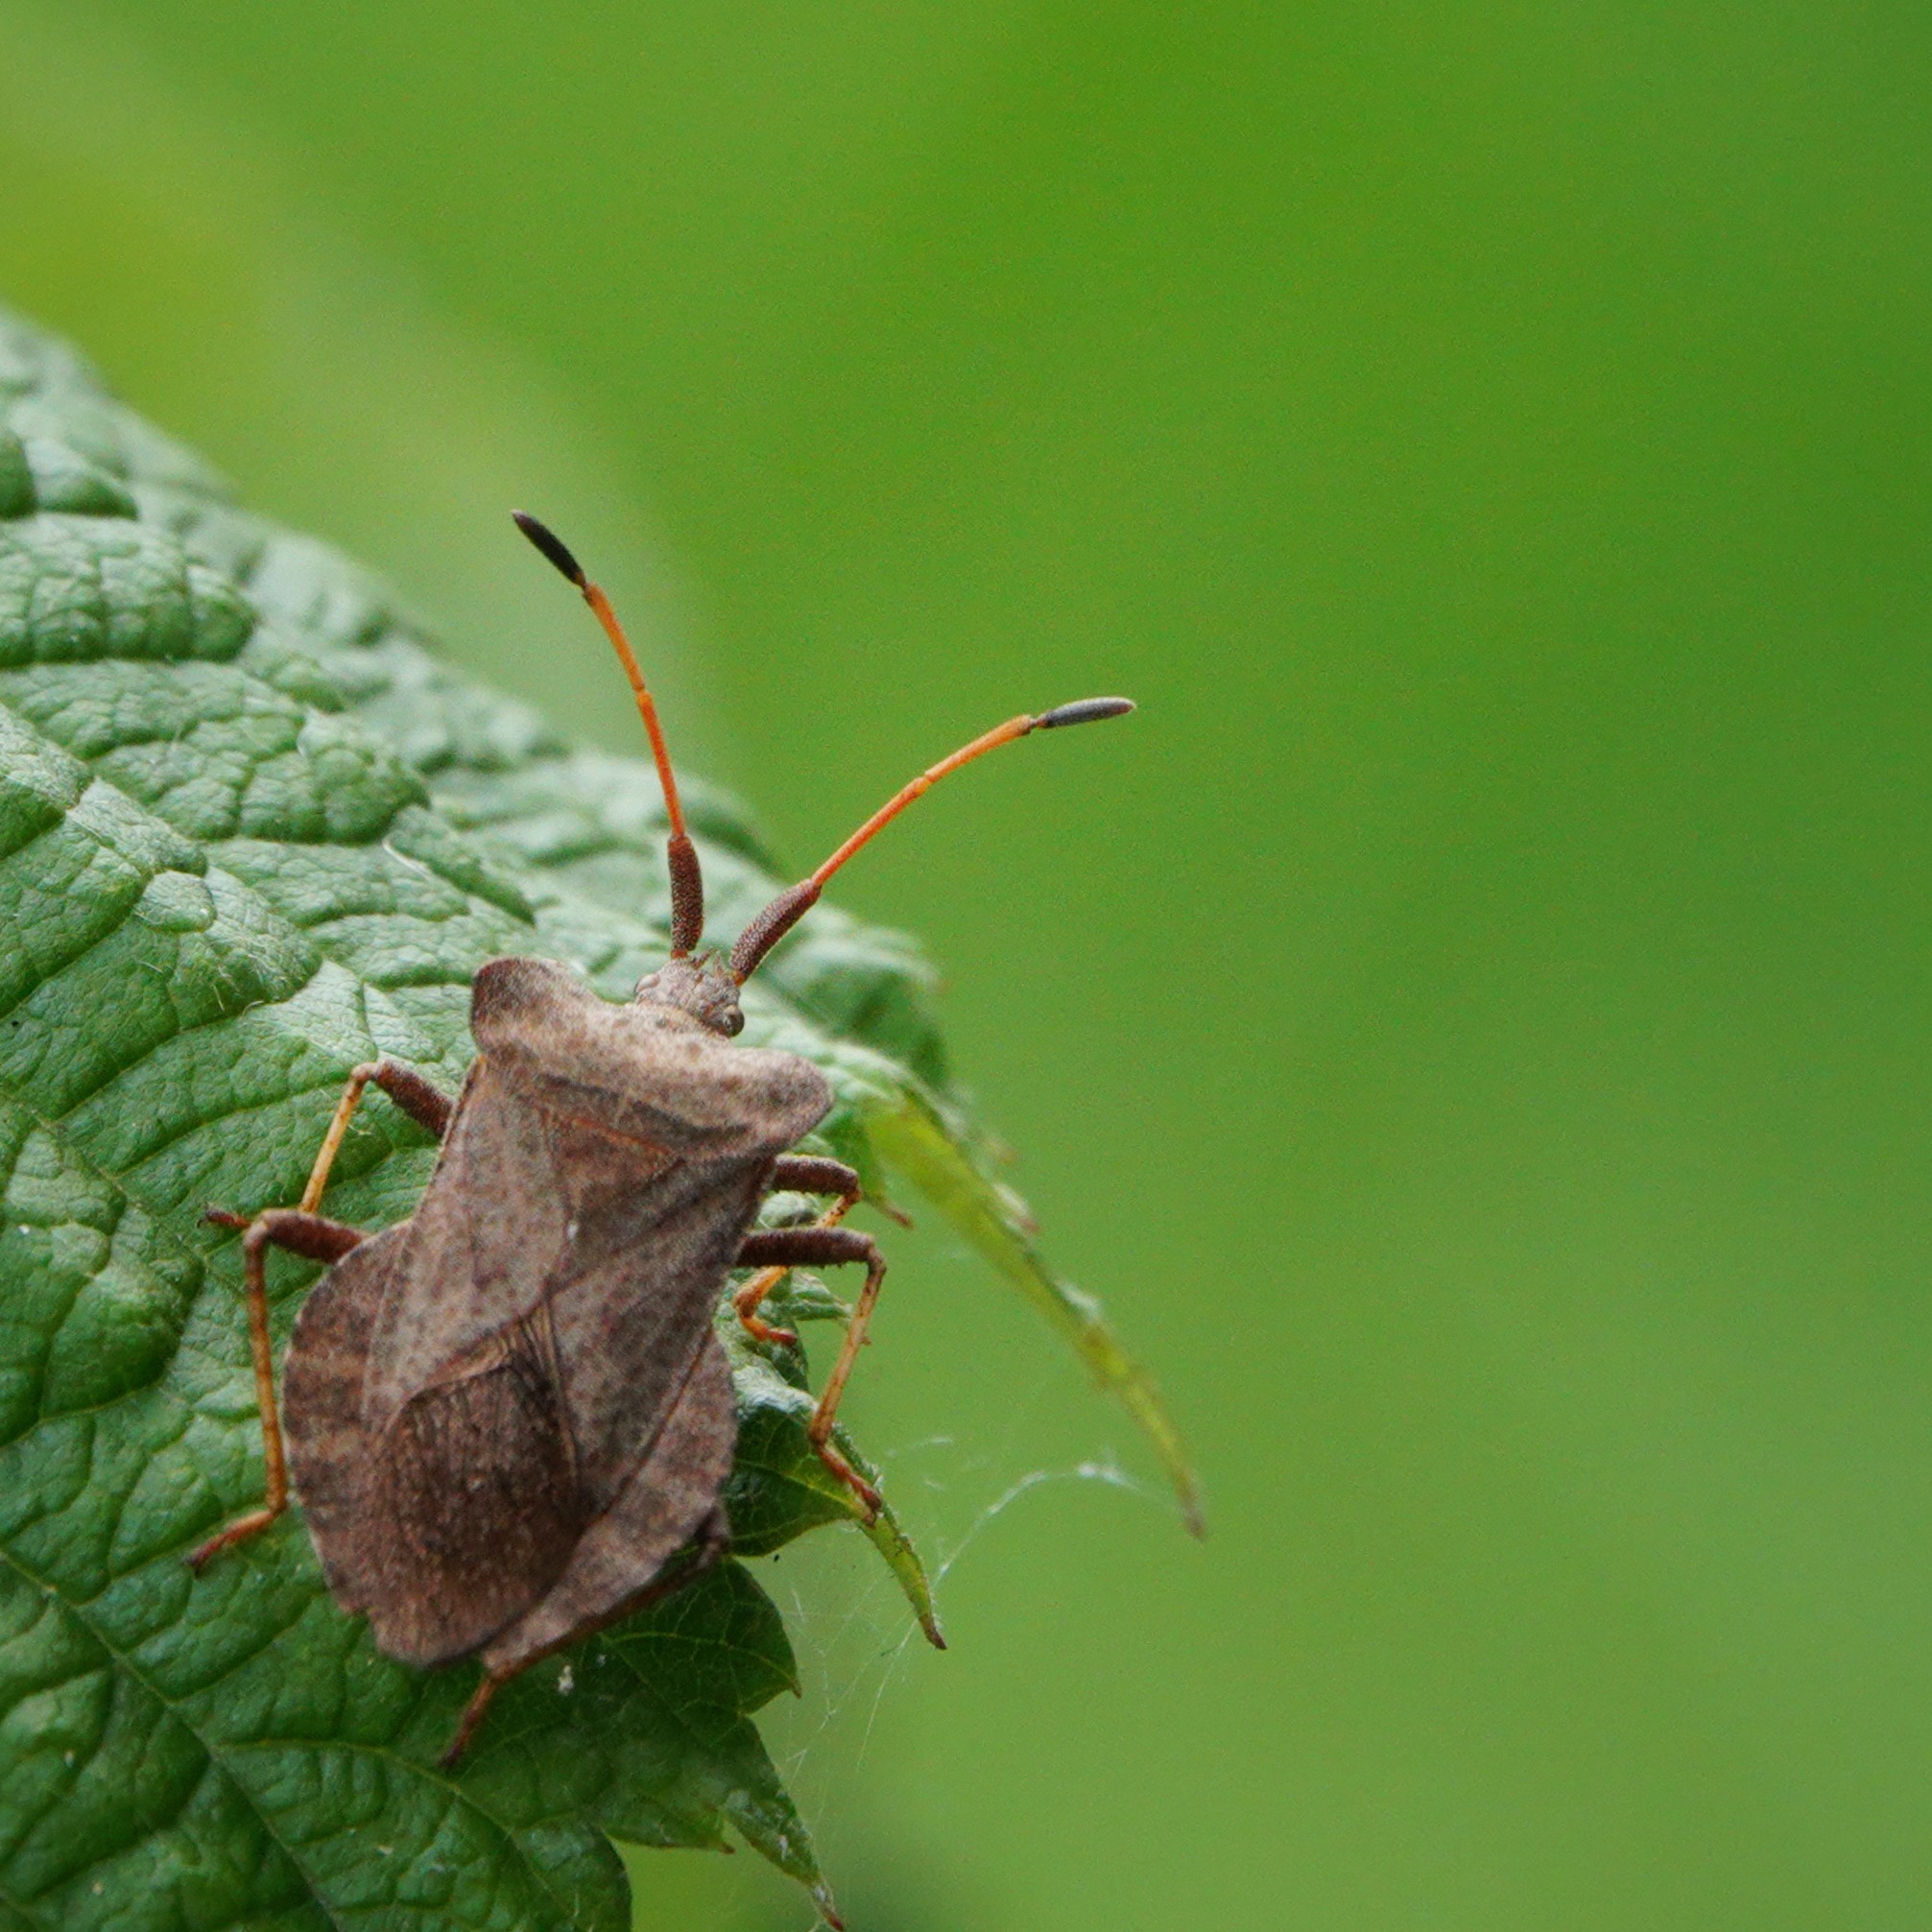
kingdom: Animalia
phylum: Arthropoda
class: Insecta
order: Hemiptera
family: Coreidae
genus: Coreus
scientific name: Coreus marginatus
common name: Dock bug
